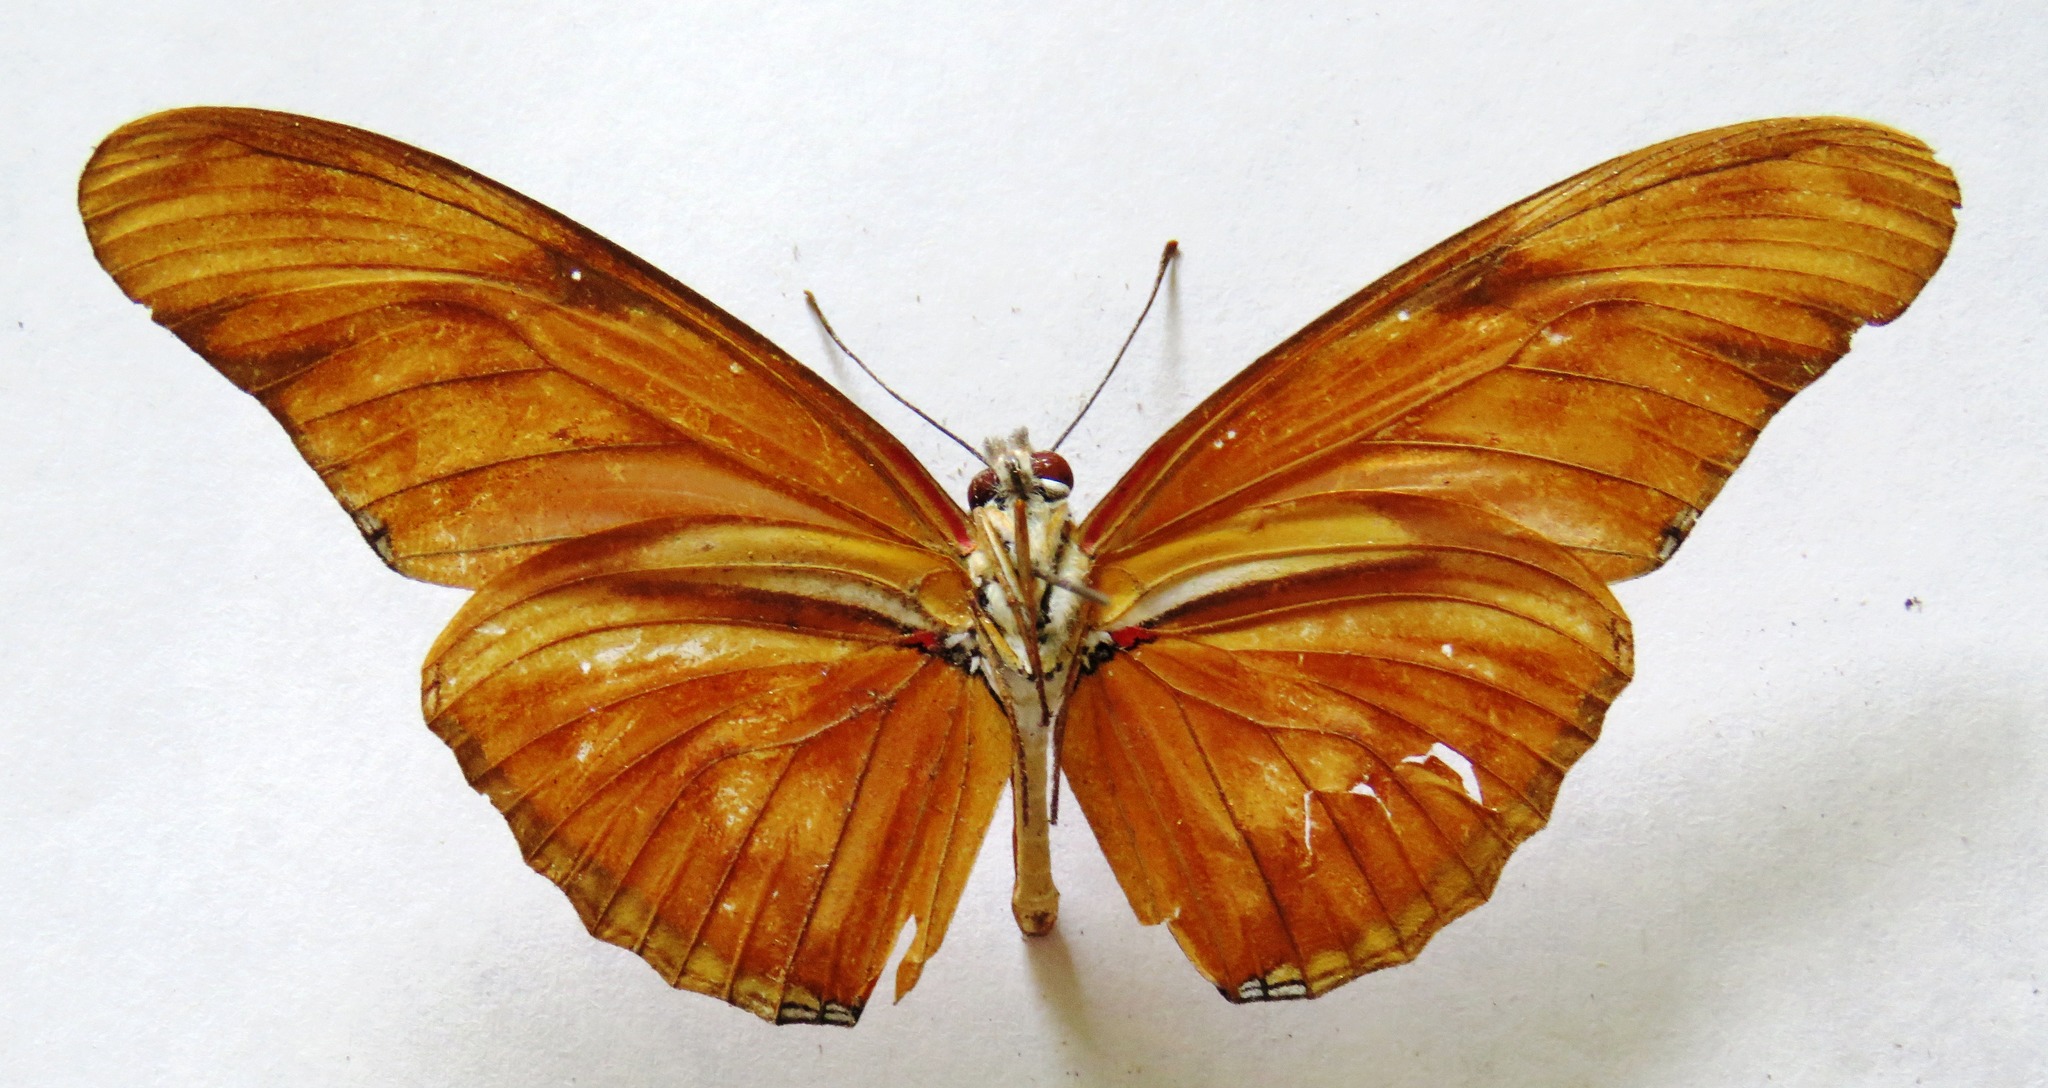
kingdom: Animalia
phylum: Arthropoda
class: Insecta
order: Lepidoptera
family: Nymphalidae
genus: Dryas
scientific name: Dryas iulia
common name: Flambeau
